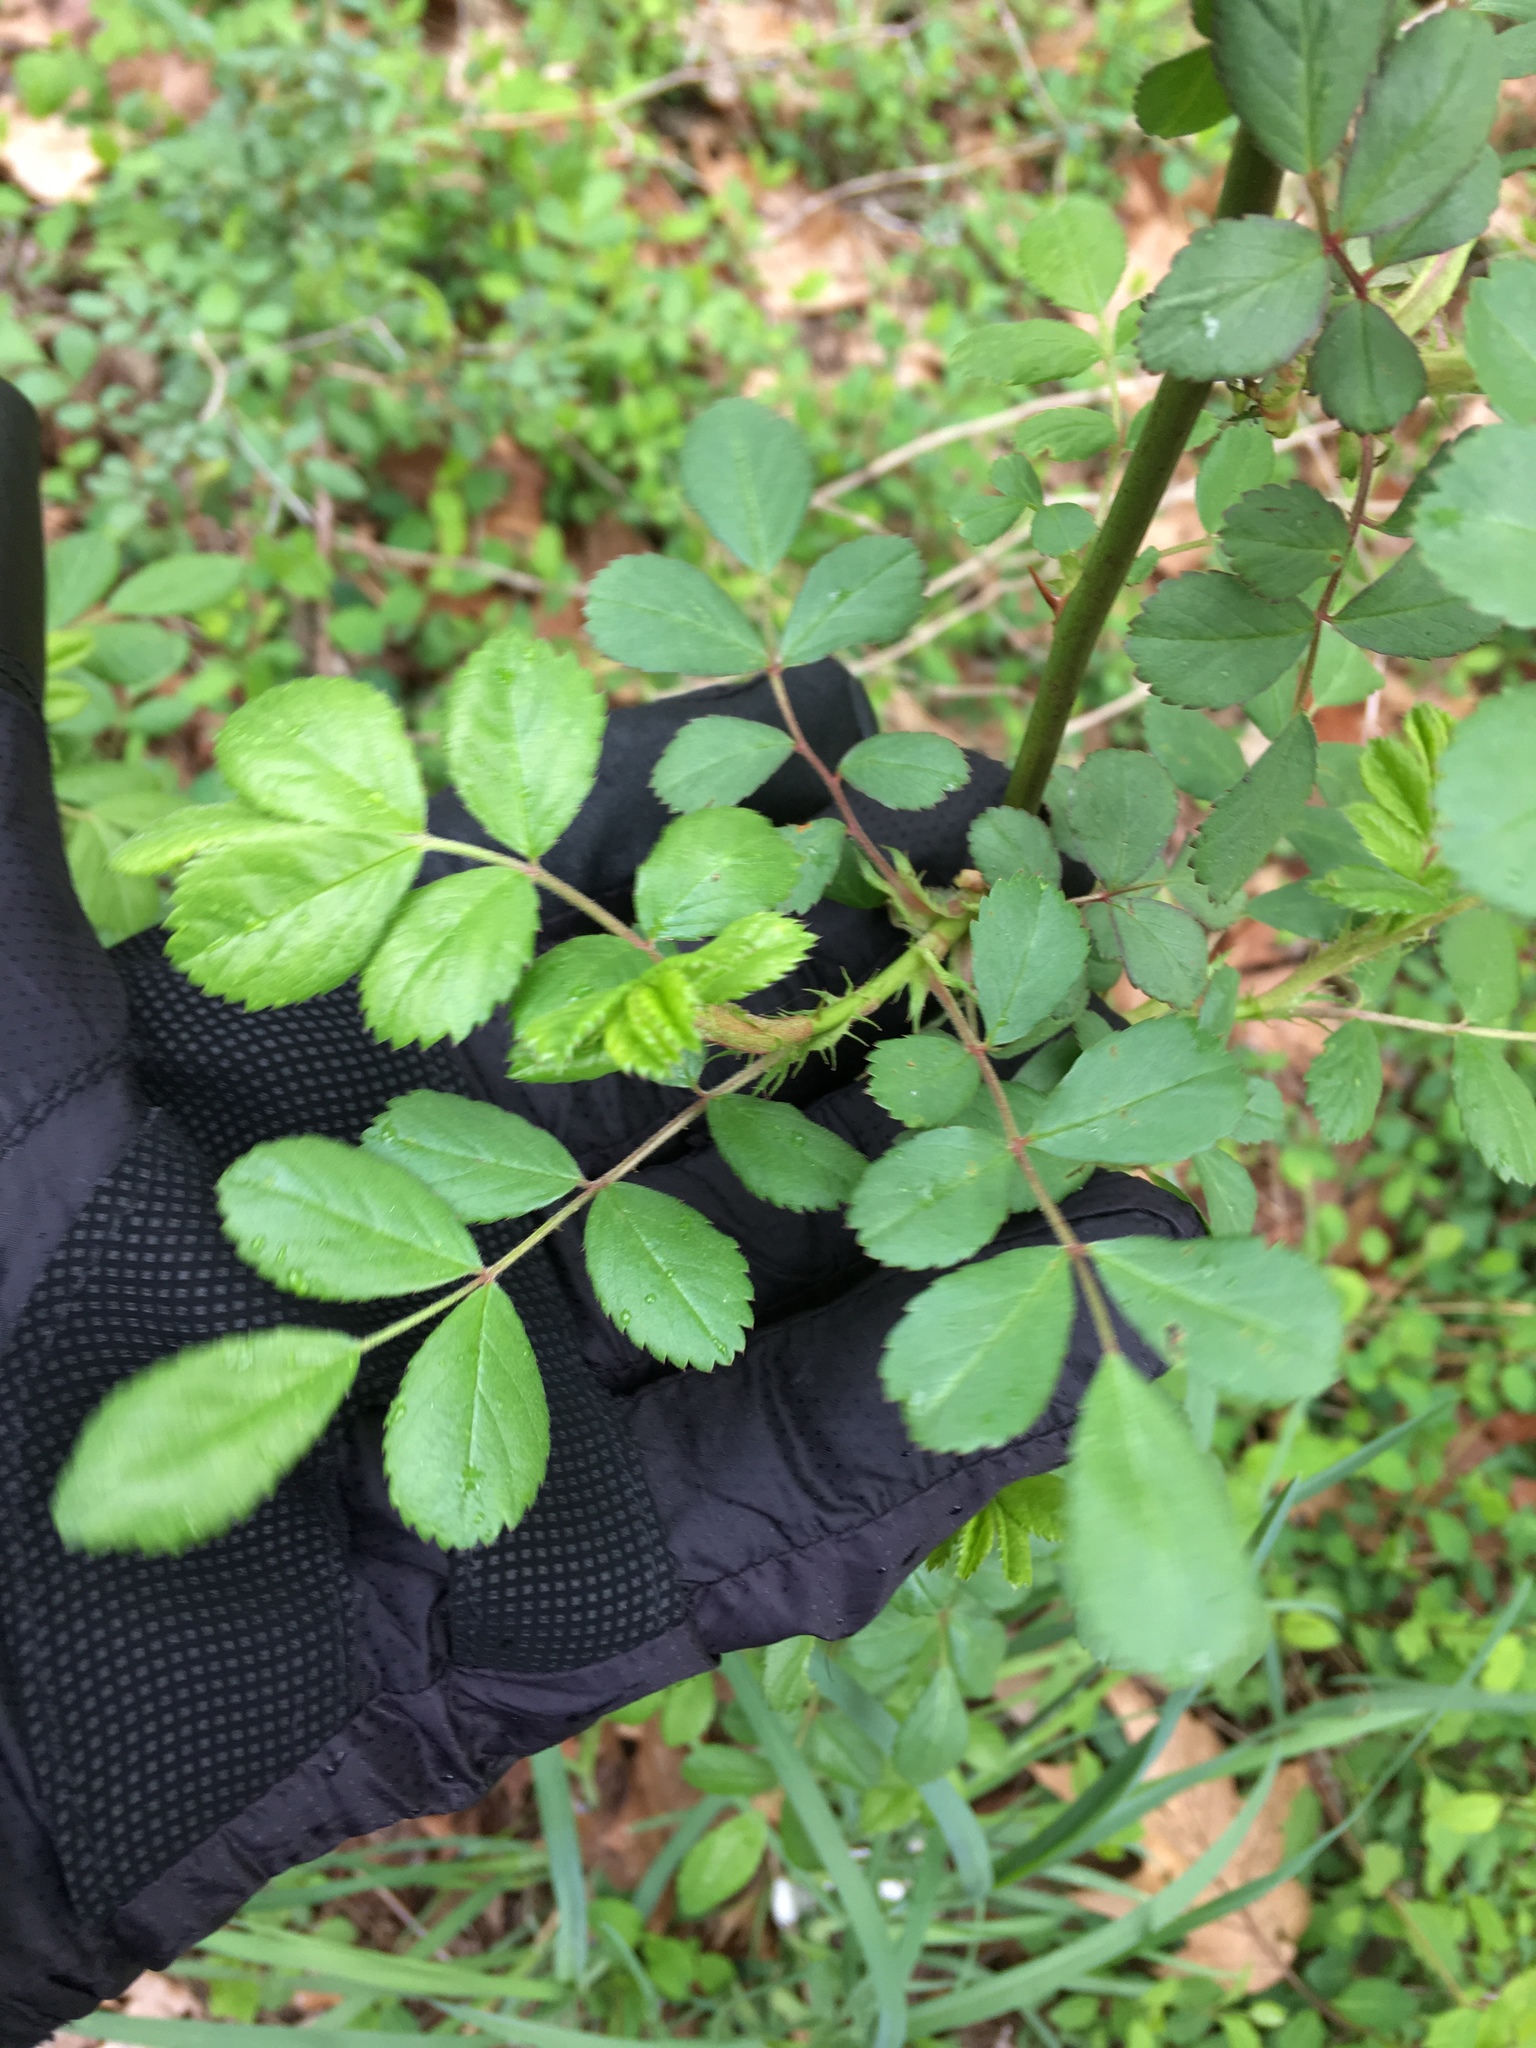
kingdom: Plantae
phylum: Tracheophyta
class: Magnoliopsida
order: Rosales
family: Rosaceae
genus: Rosa
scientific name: Rosa multiflora
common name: Multiflora rose
